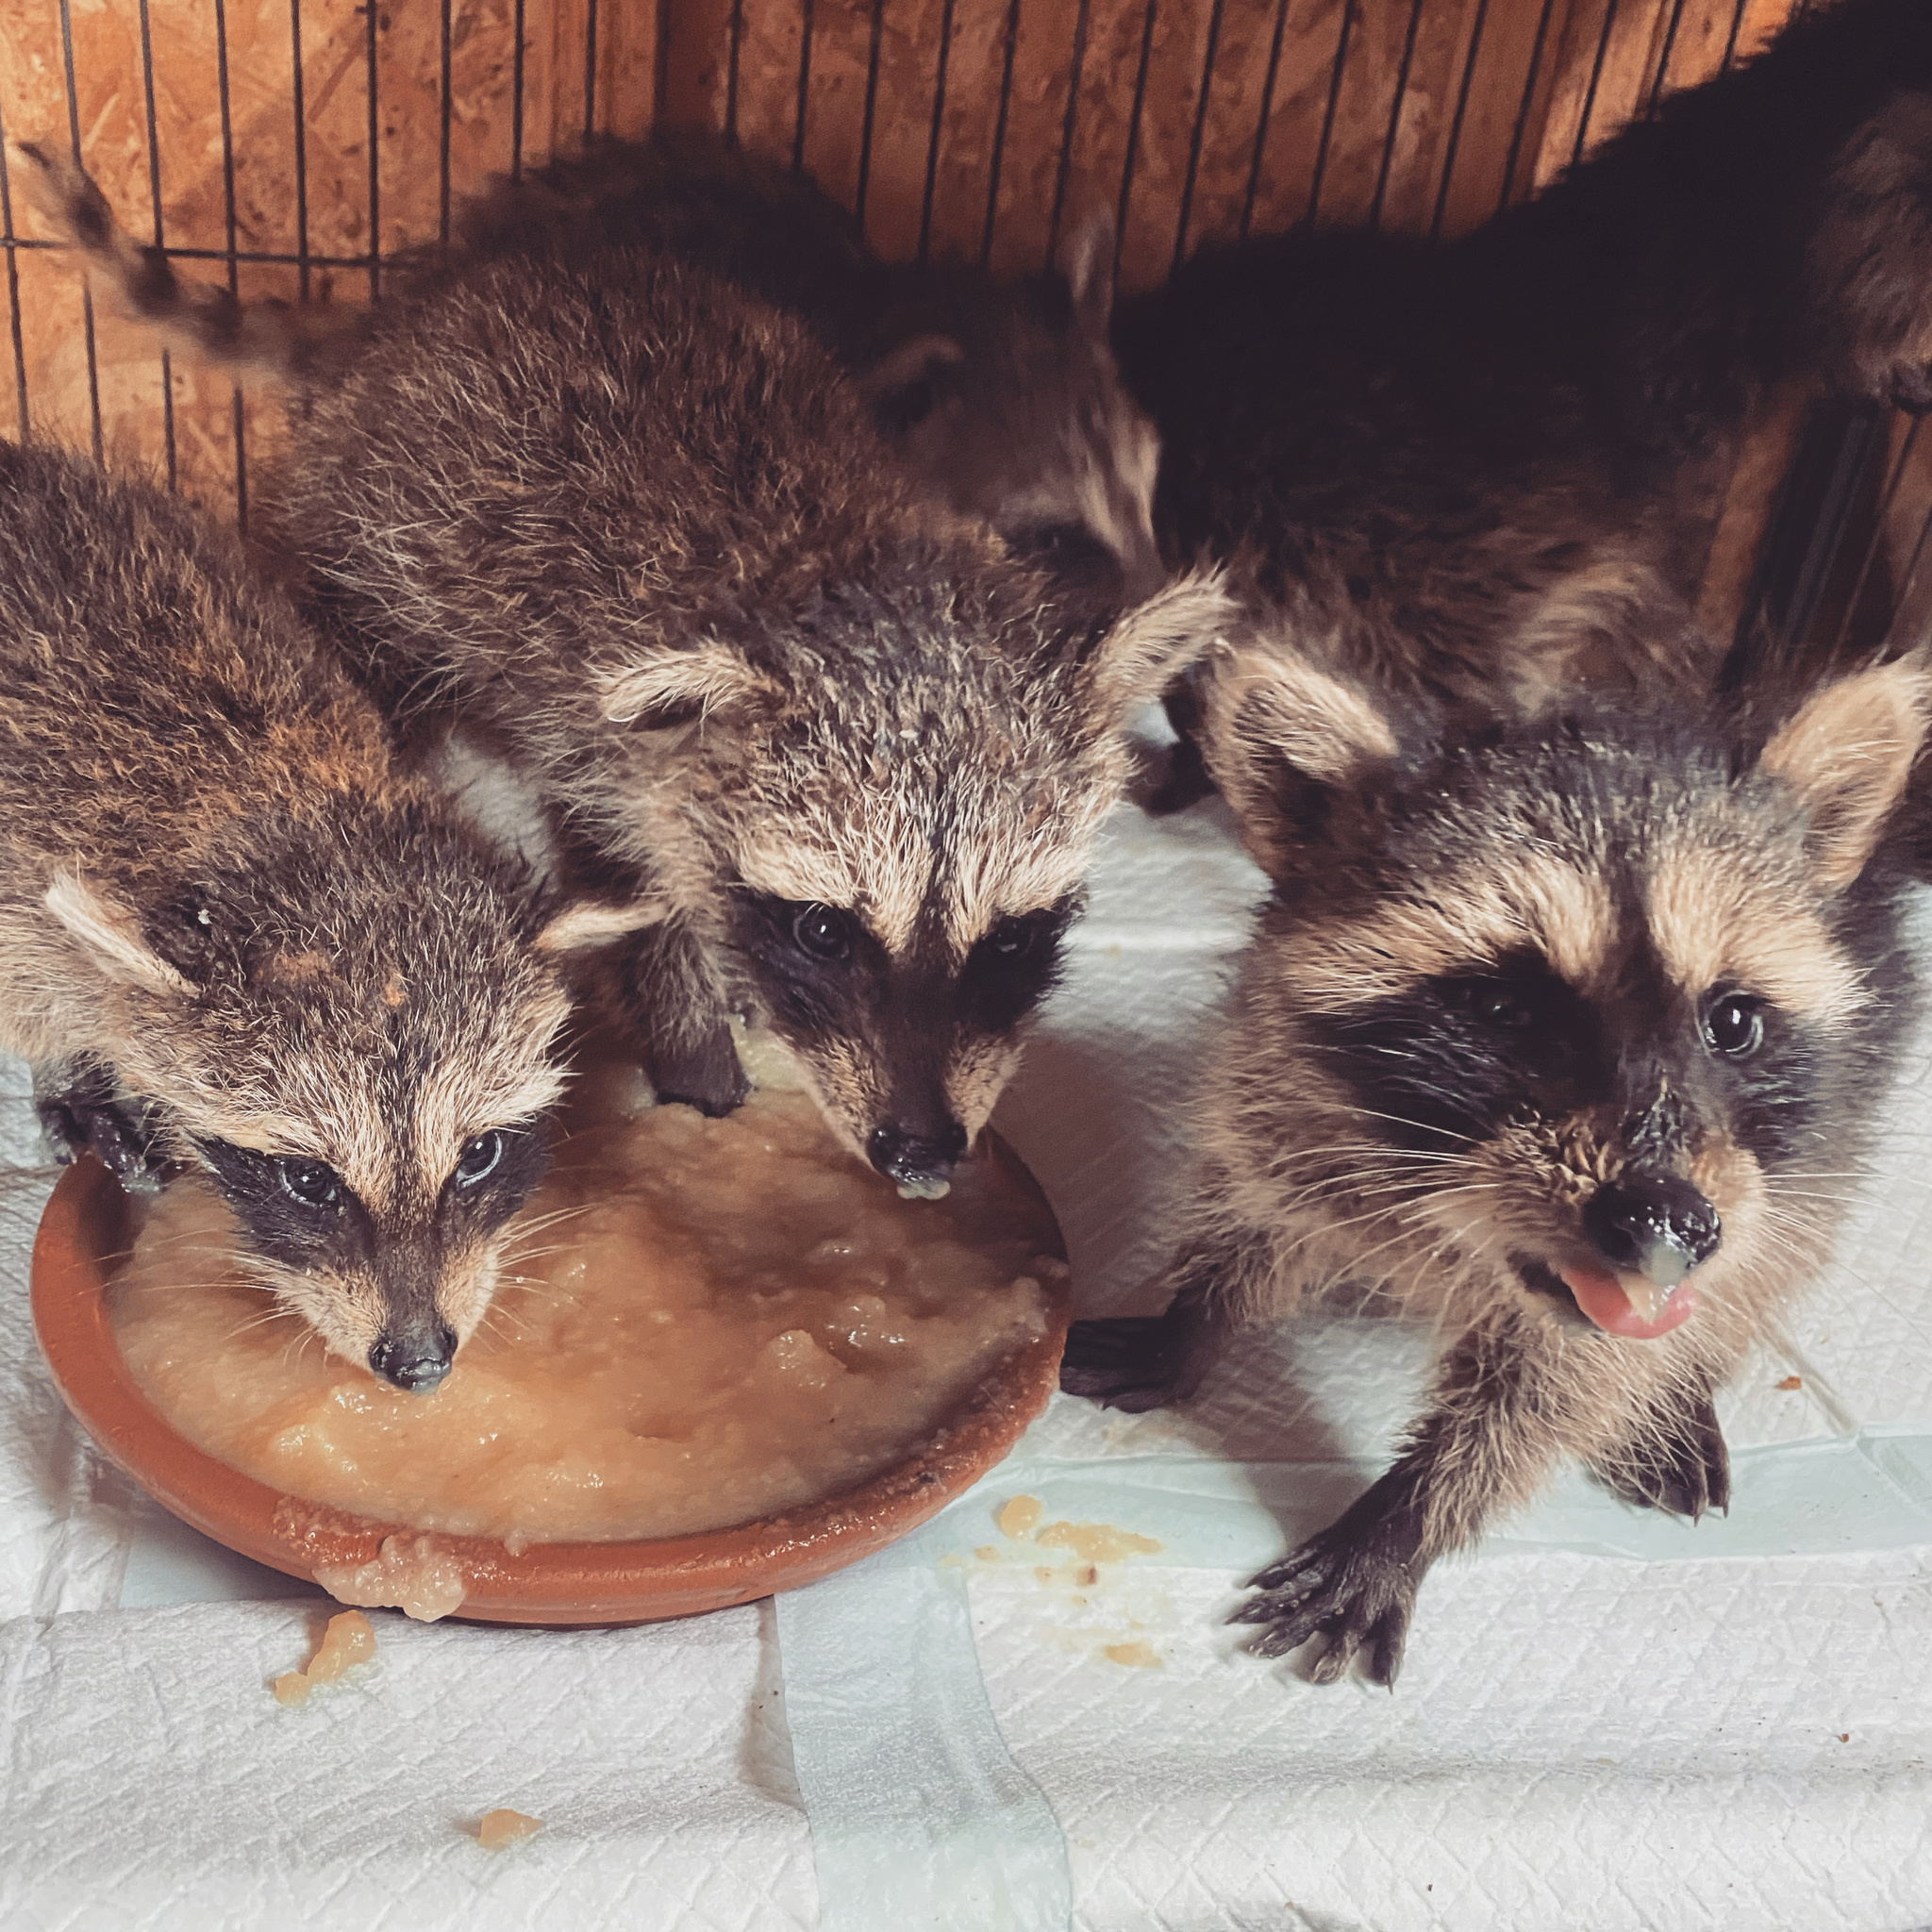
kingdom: Animalia
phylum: Chordata
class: Mammalia
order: Carnivora
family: Procyonidae
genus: Procyon
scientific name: Procyon lotor
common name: Raccoon
